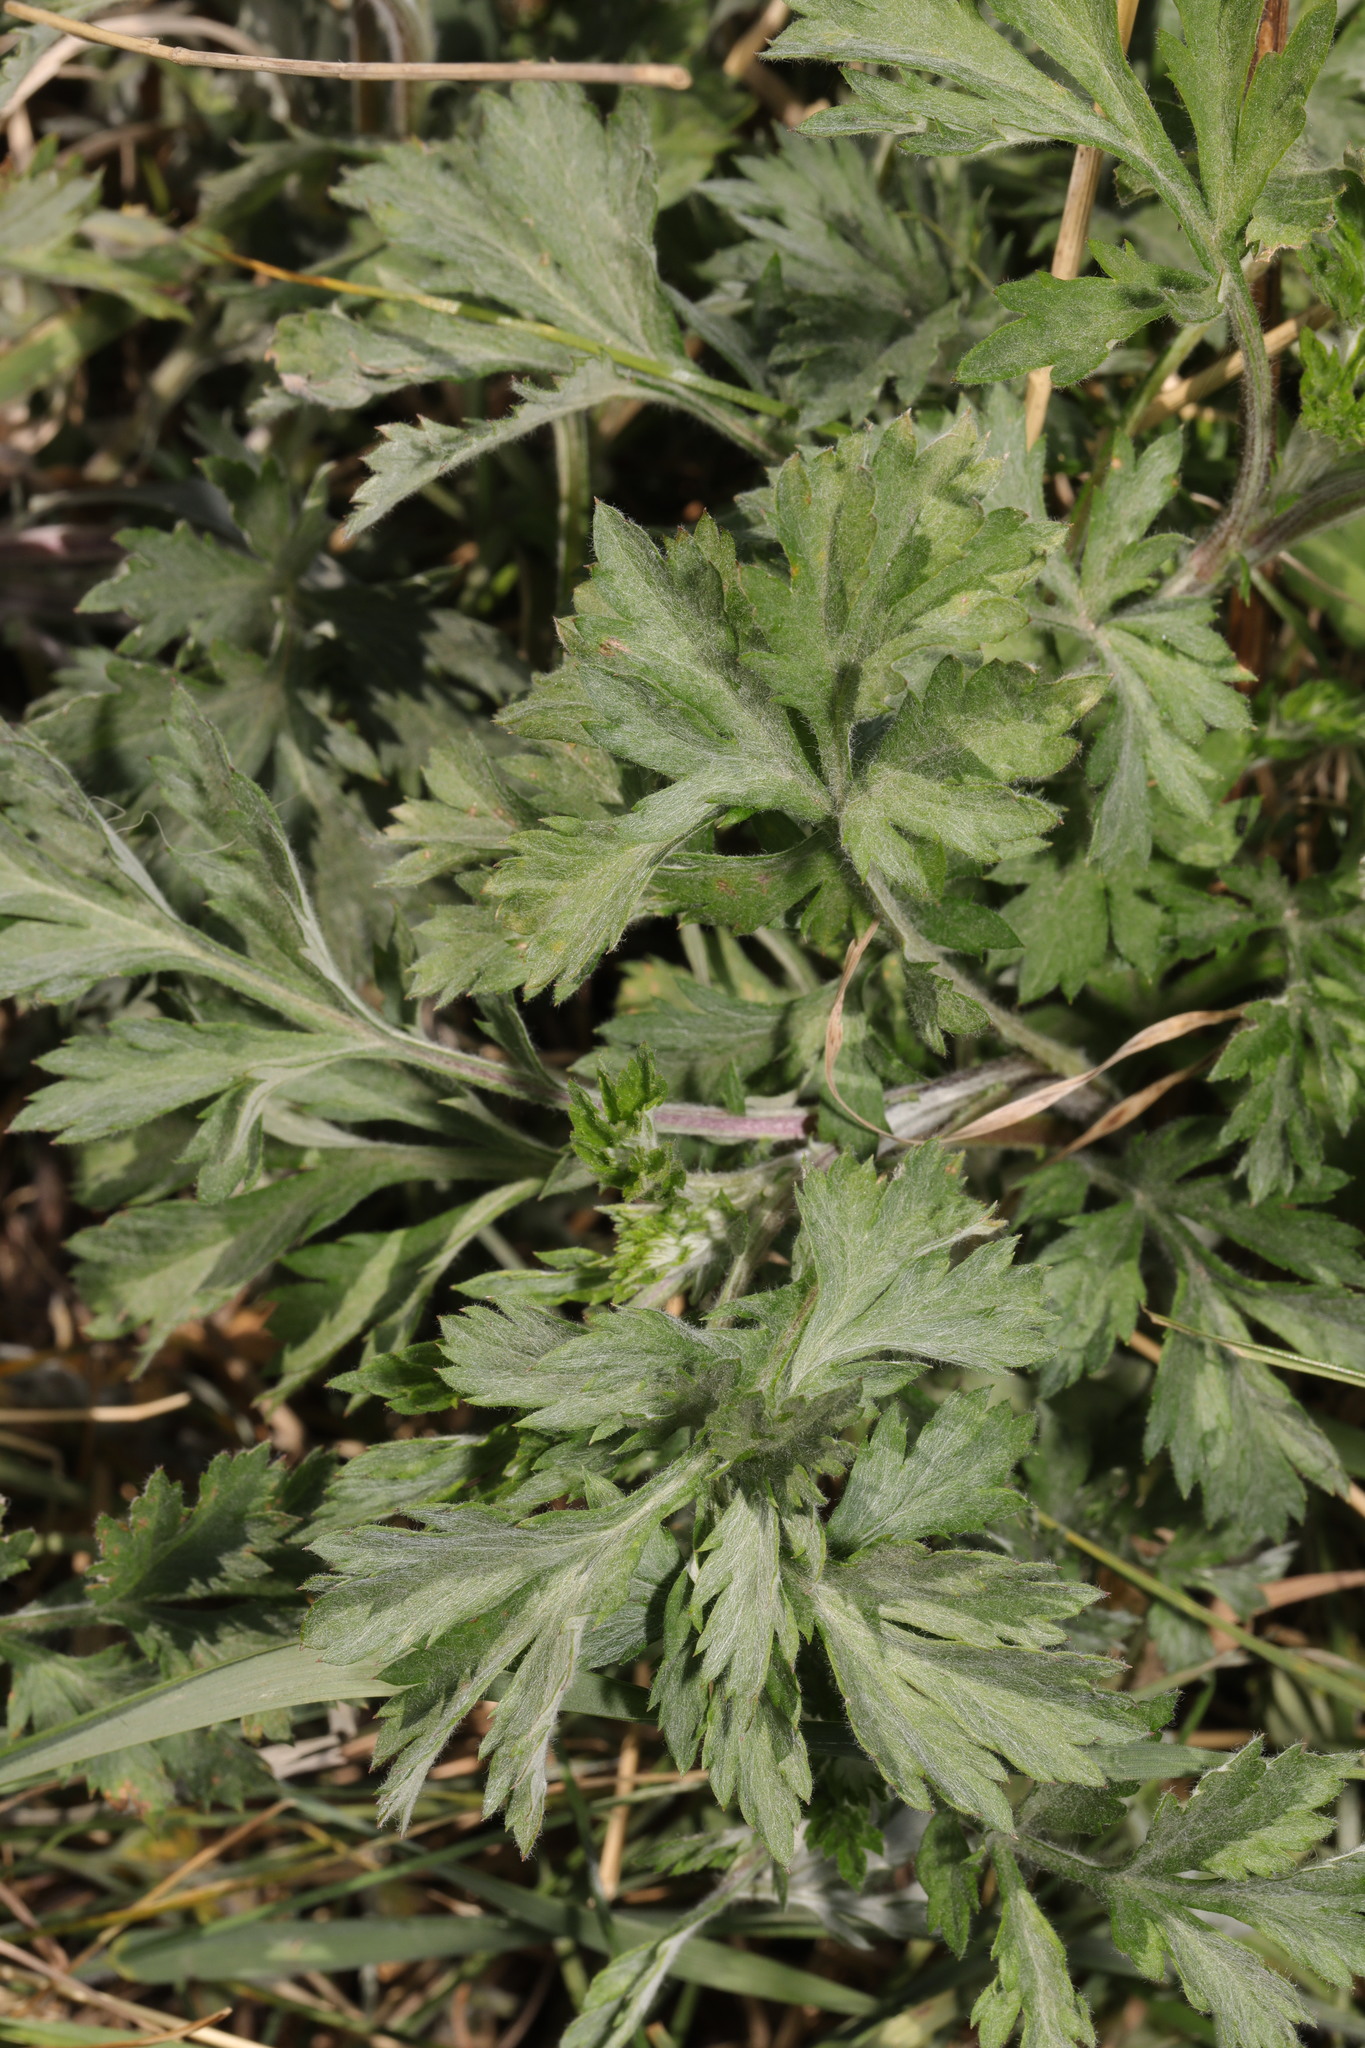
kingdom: Plantae
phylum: Tracheophyta
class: Magnoliopsida
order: Asterales
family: Asteraceae
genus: Artemisia
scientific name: Artemisia vulgaris
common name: Mugwort
